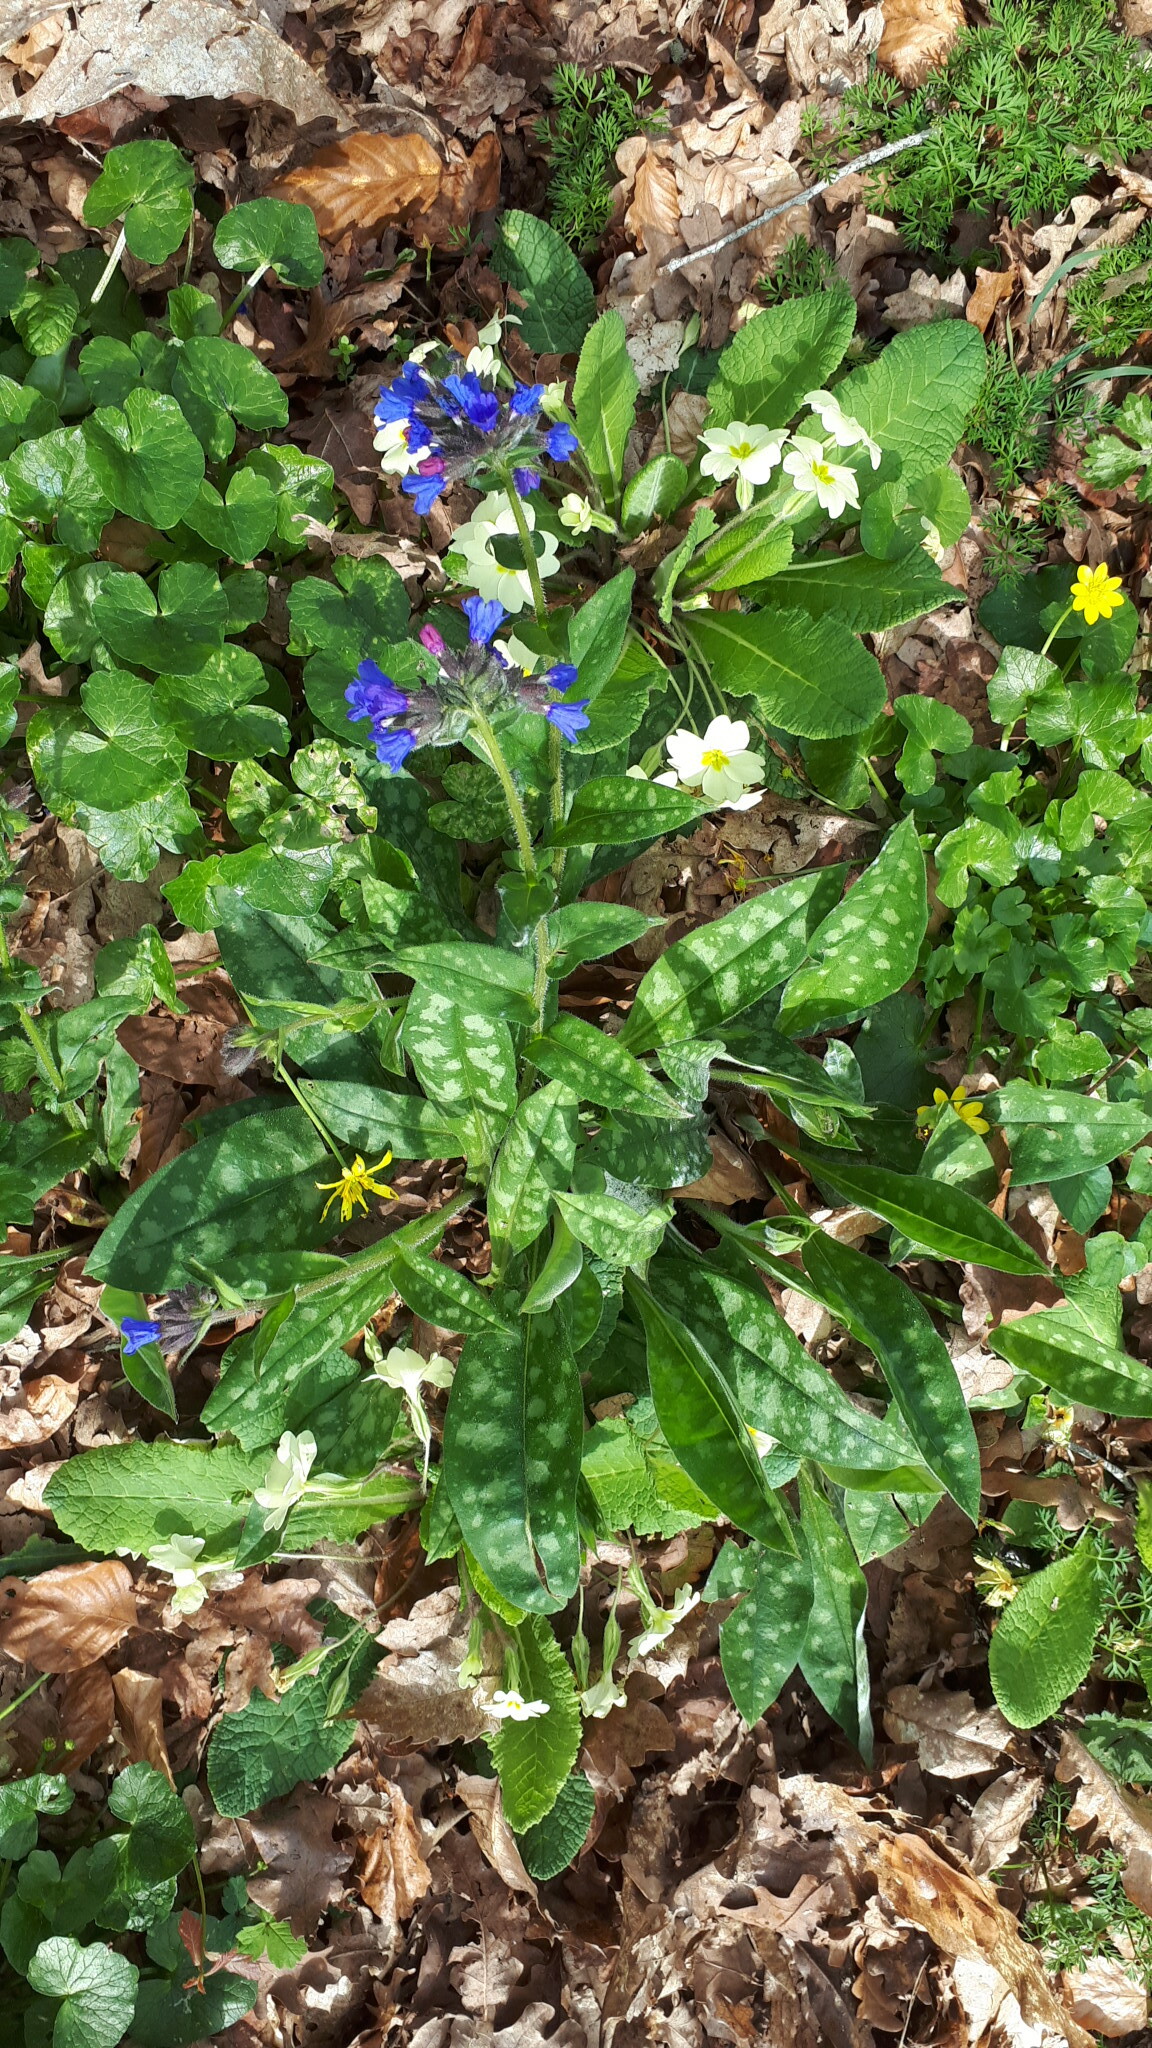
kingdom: Plantae
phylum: Tracheophyta
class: Magnoliopsida
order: Boraginales
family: Boraginaceae
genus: Pulmonaria
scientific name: Pulmonaria longifolia
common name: Narrow-leaved lungwort
